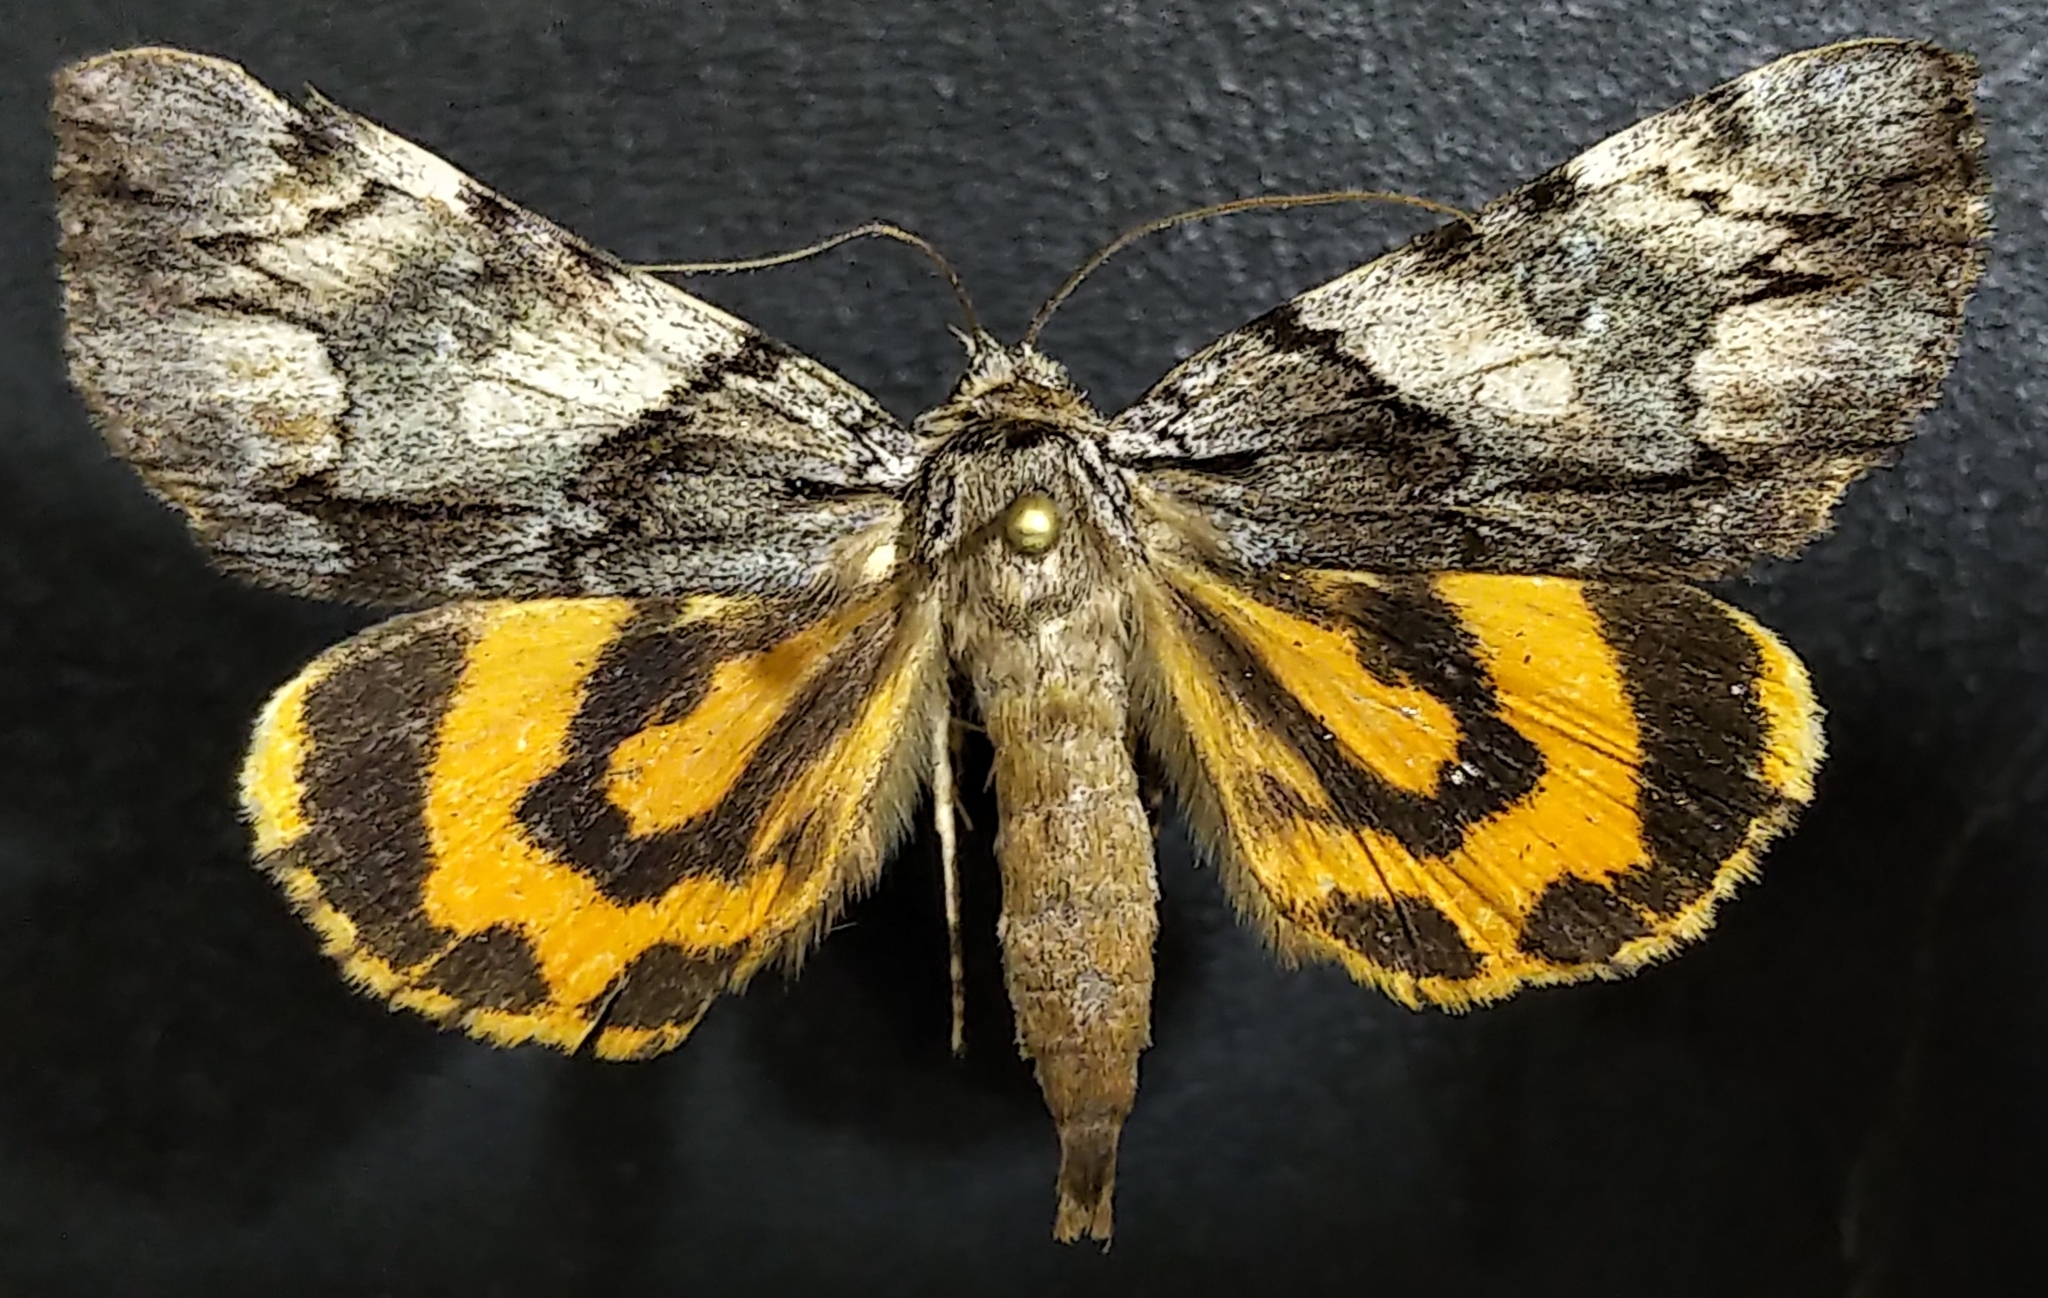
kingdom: Animalia
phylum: Arthropoda
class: Insecta
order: Lepidoptera
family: Erebidae
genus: Catocala
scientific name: Catocala blandula
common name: Charming underwing
